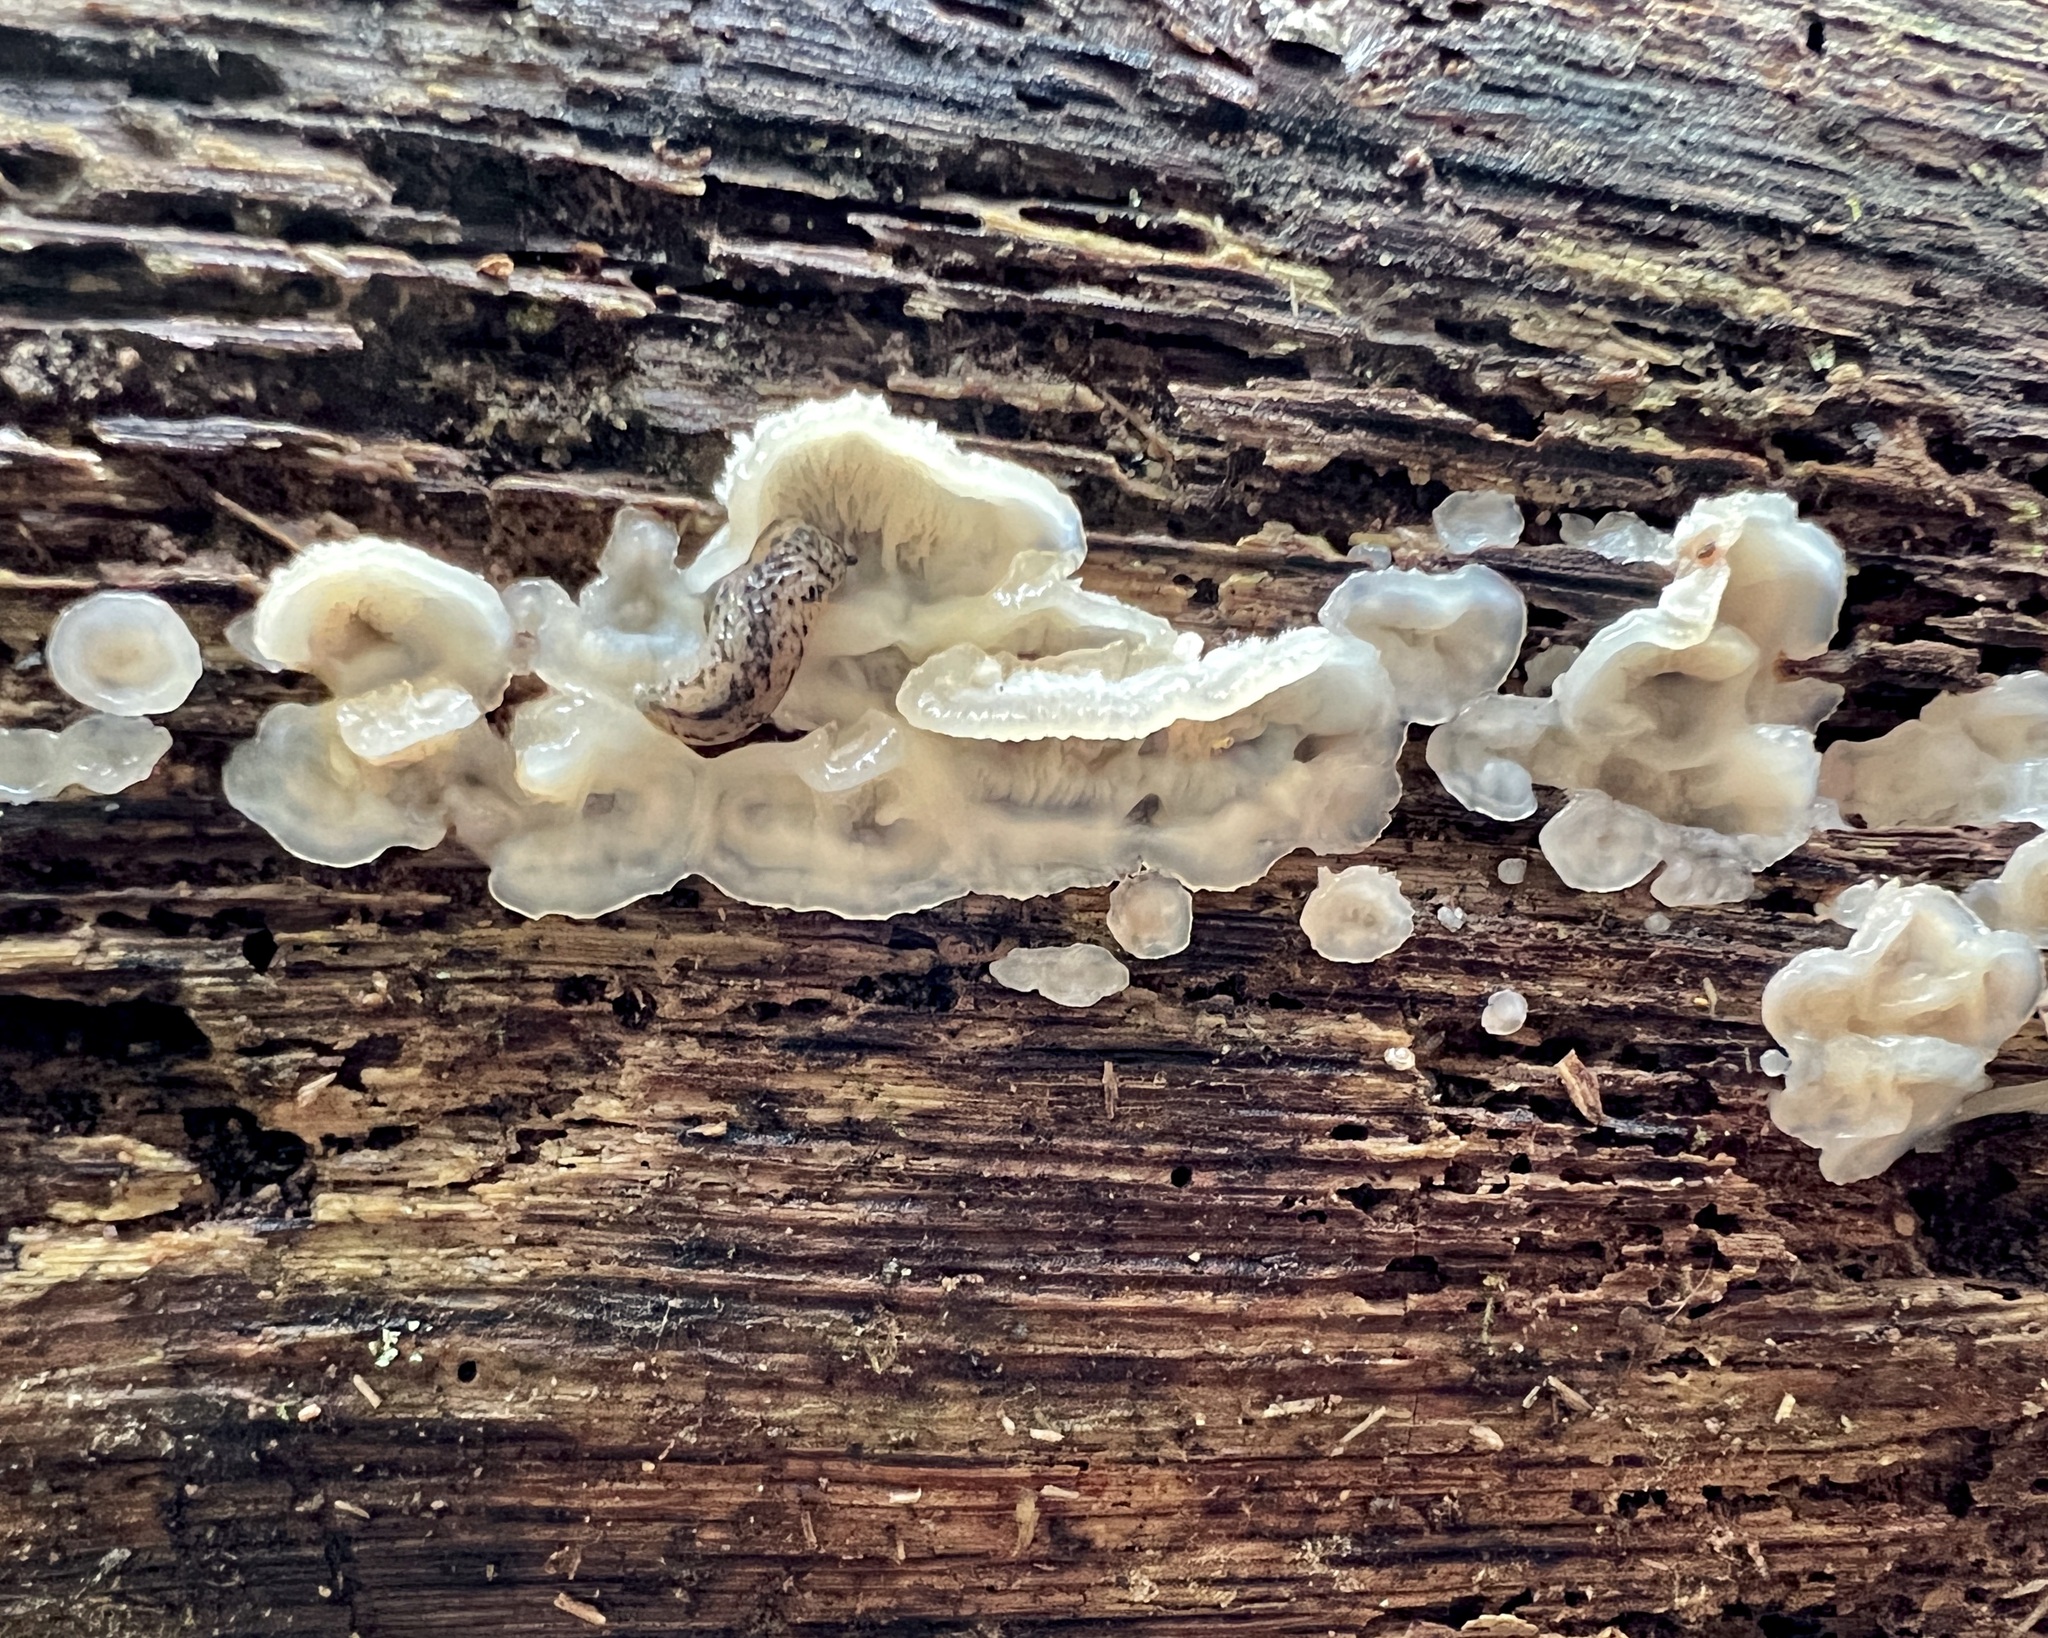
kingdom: Fungi
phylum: Basidiomycota
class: Agaricomycetes
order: Polyporales
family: Meruliaceae
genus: Phlebia
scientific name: Phlebia tremellosa
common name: Jelly rot
